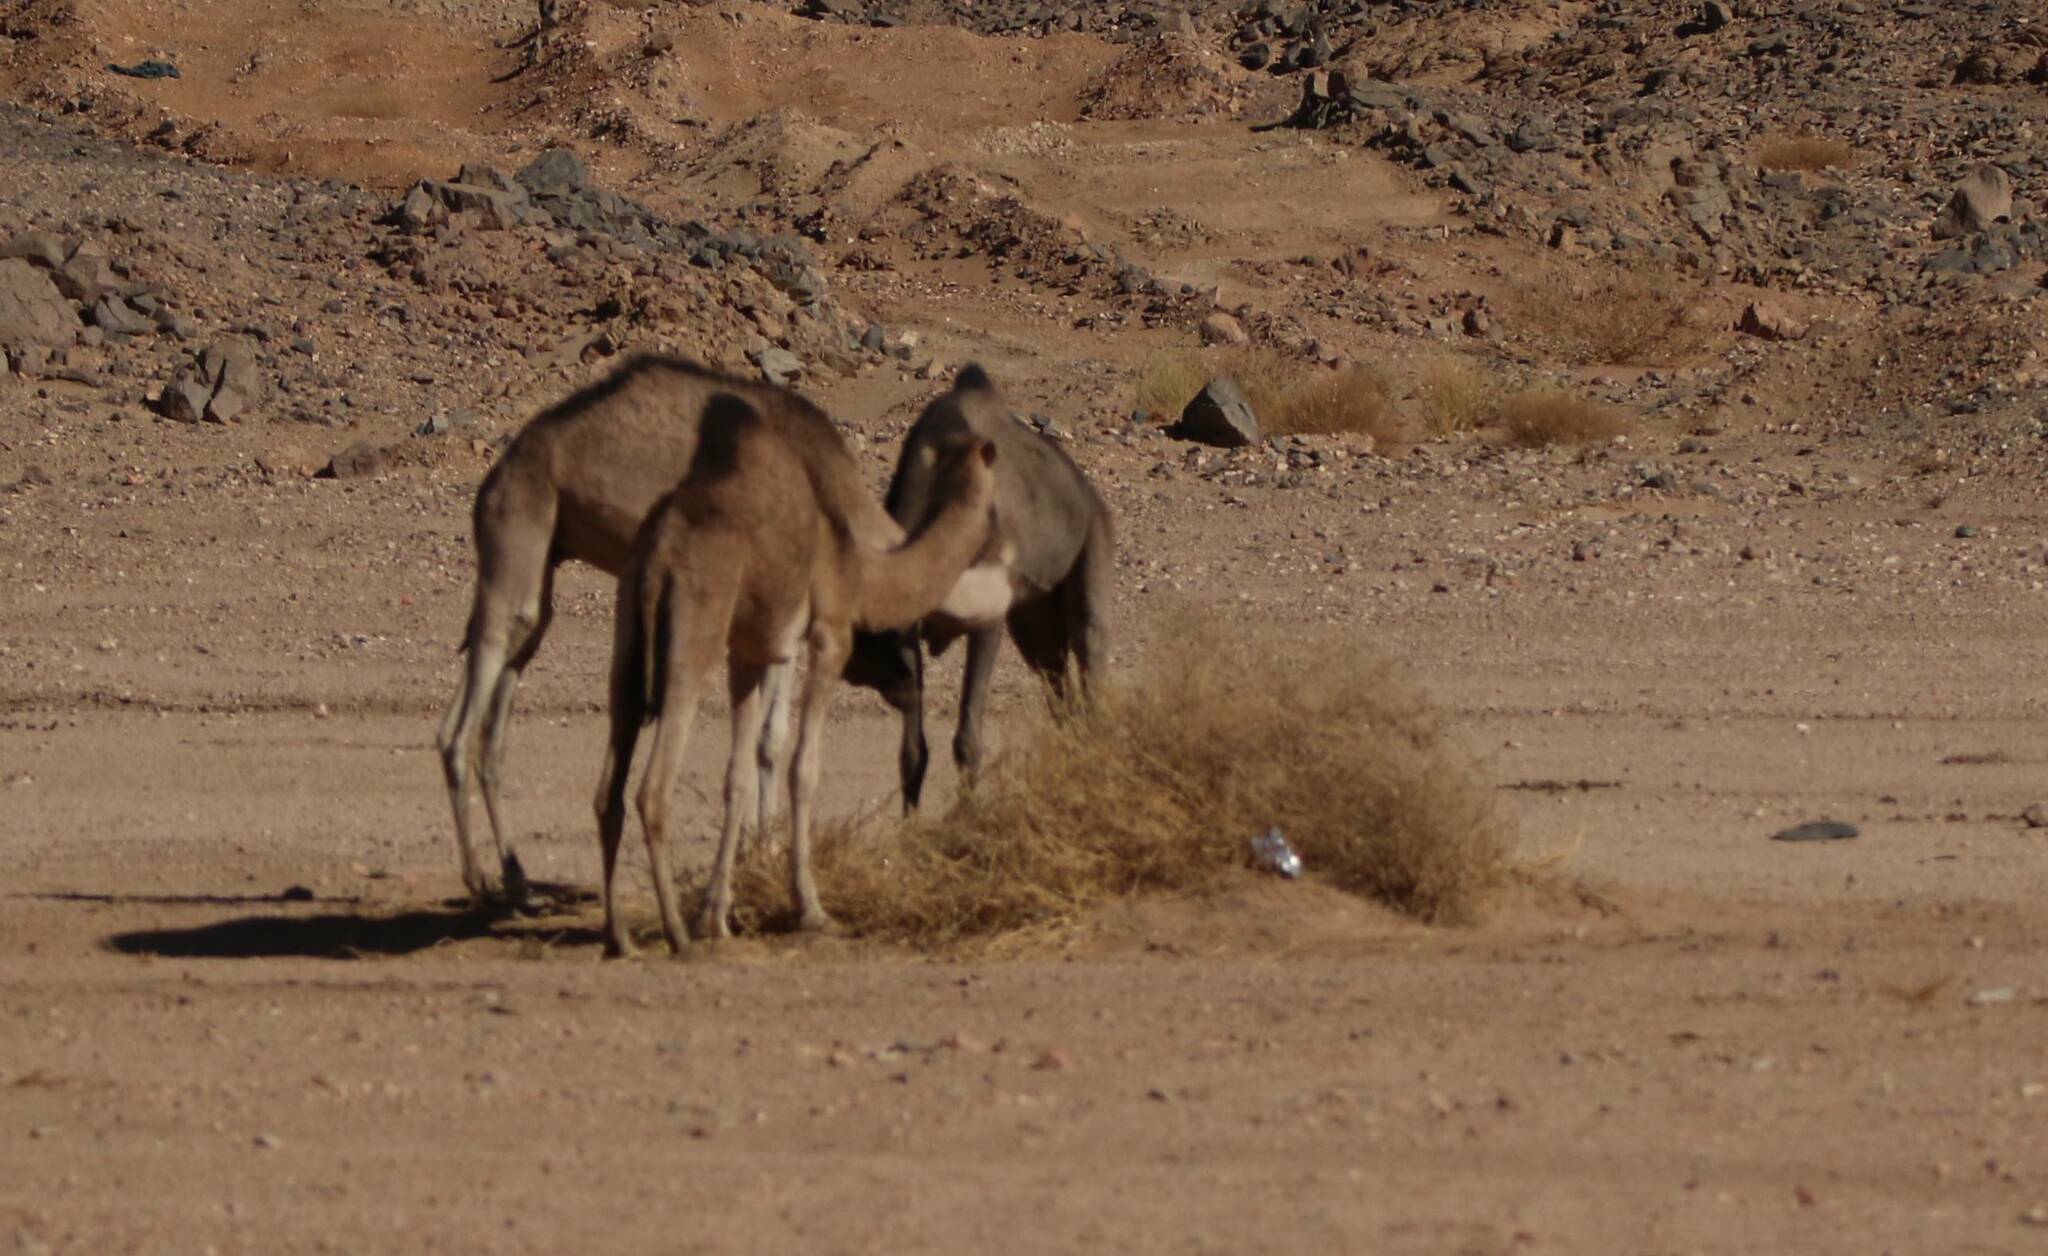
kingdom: Animalia
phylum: Chordata
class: Mammalia
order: Artiodactyla
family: Camelidae
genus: Camelus
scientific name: Camelus dromedarius
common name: One-humped camel
